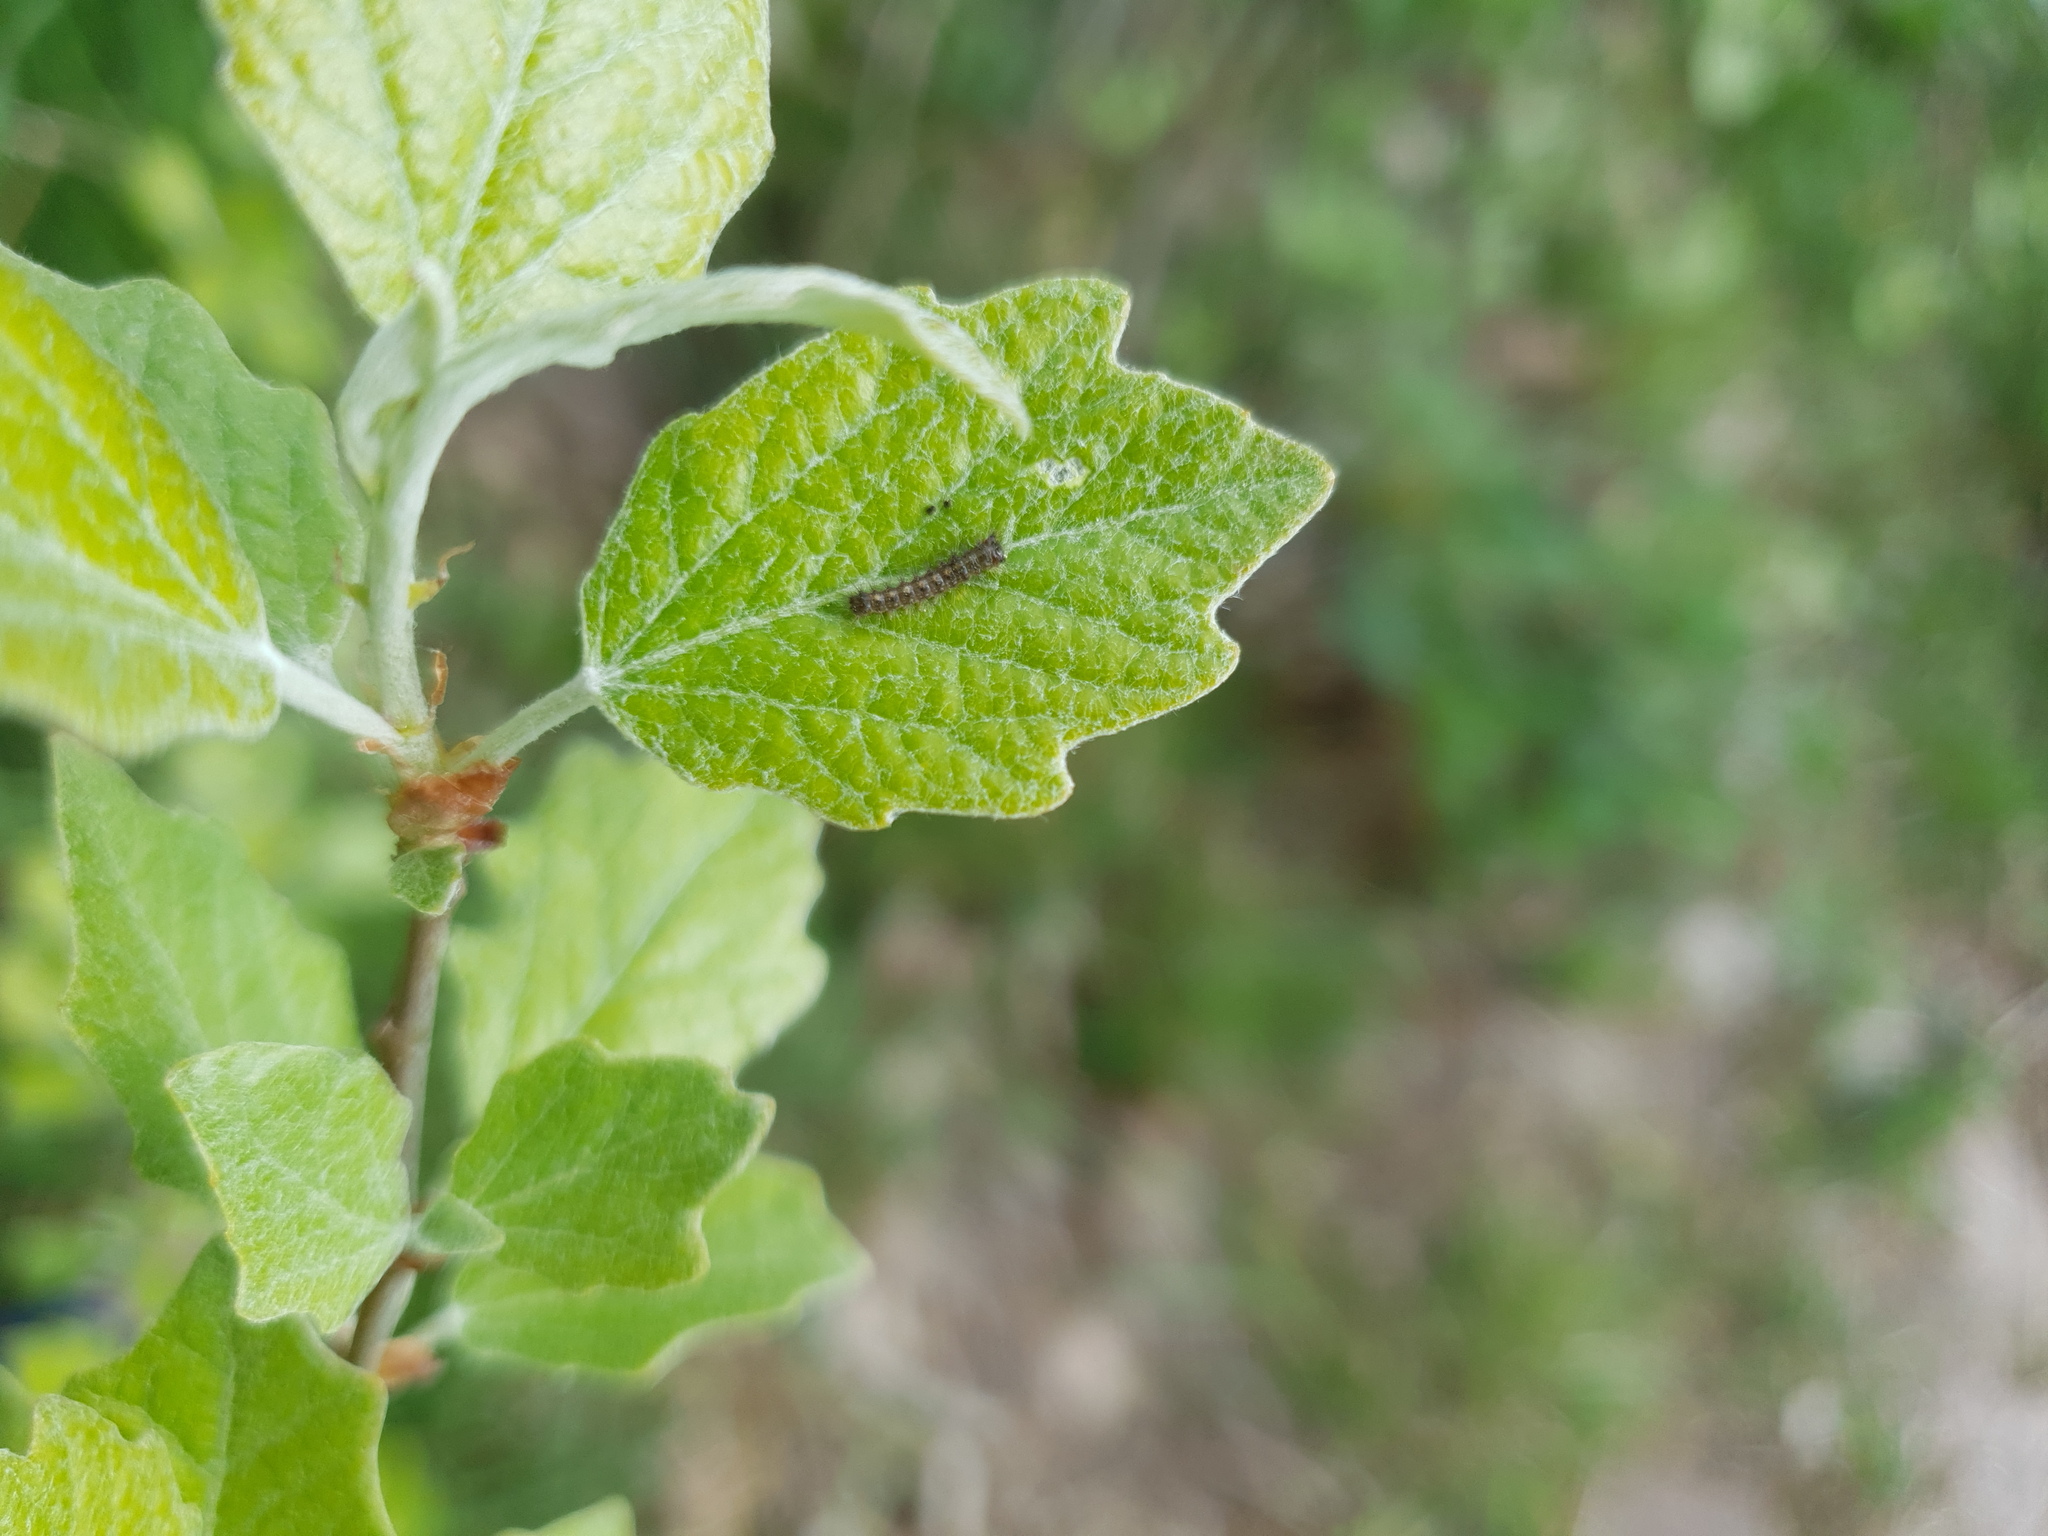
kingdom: Animalia
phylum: Arthropoda
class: Insecta
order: Lepidoptera
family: Erebidae
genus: Lymantria
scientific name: Lymantria dispar
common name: Gypsy moth
